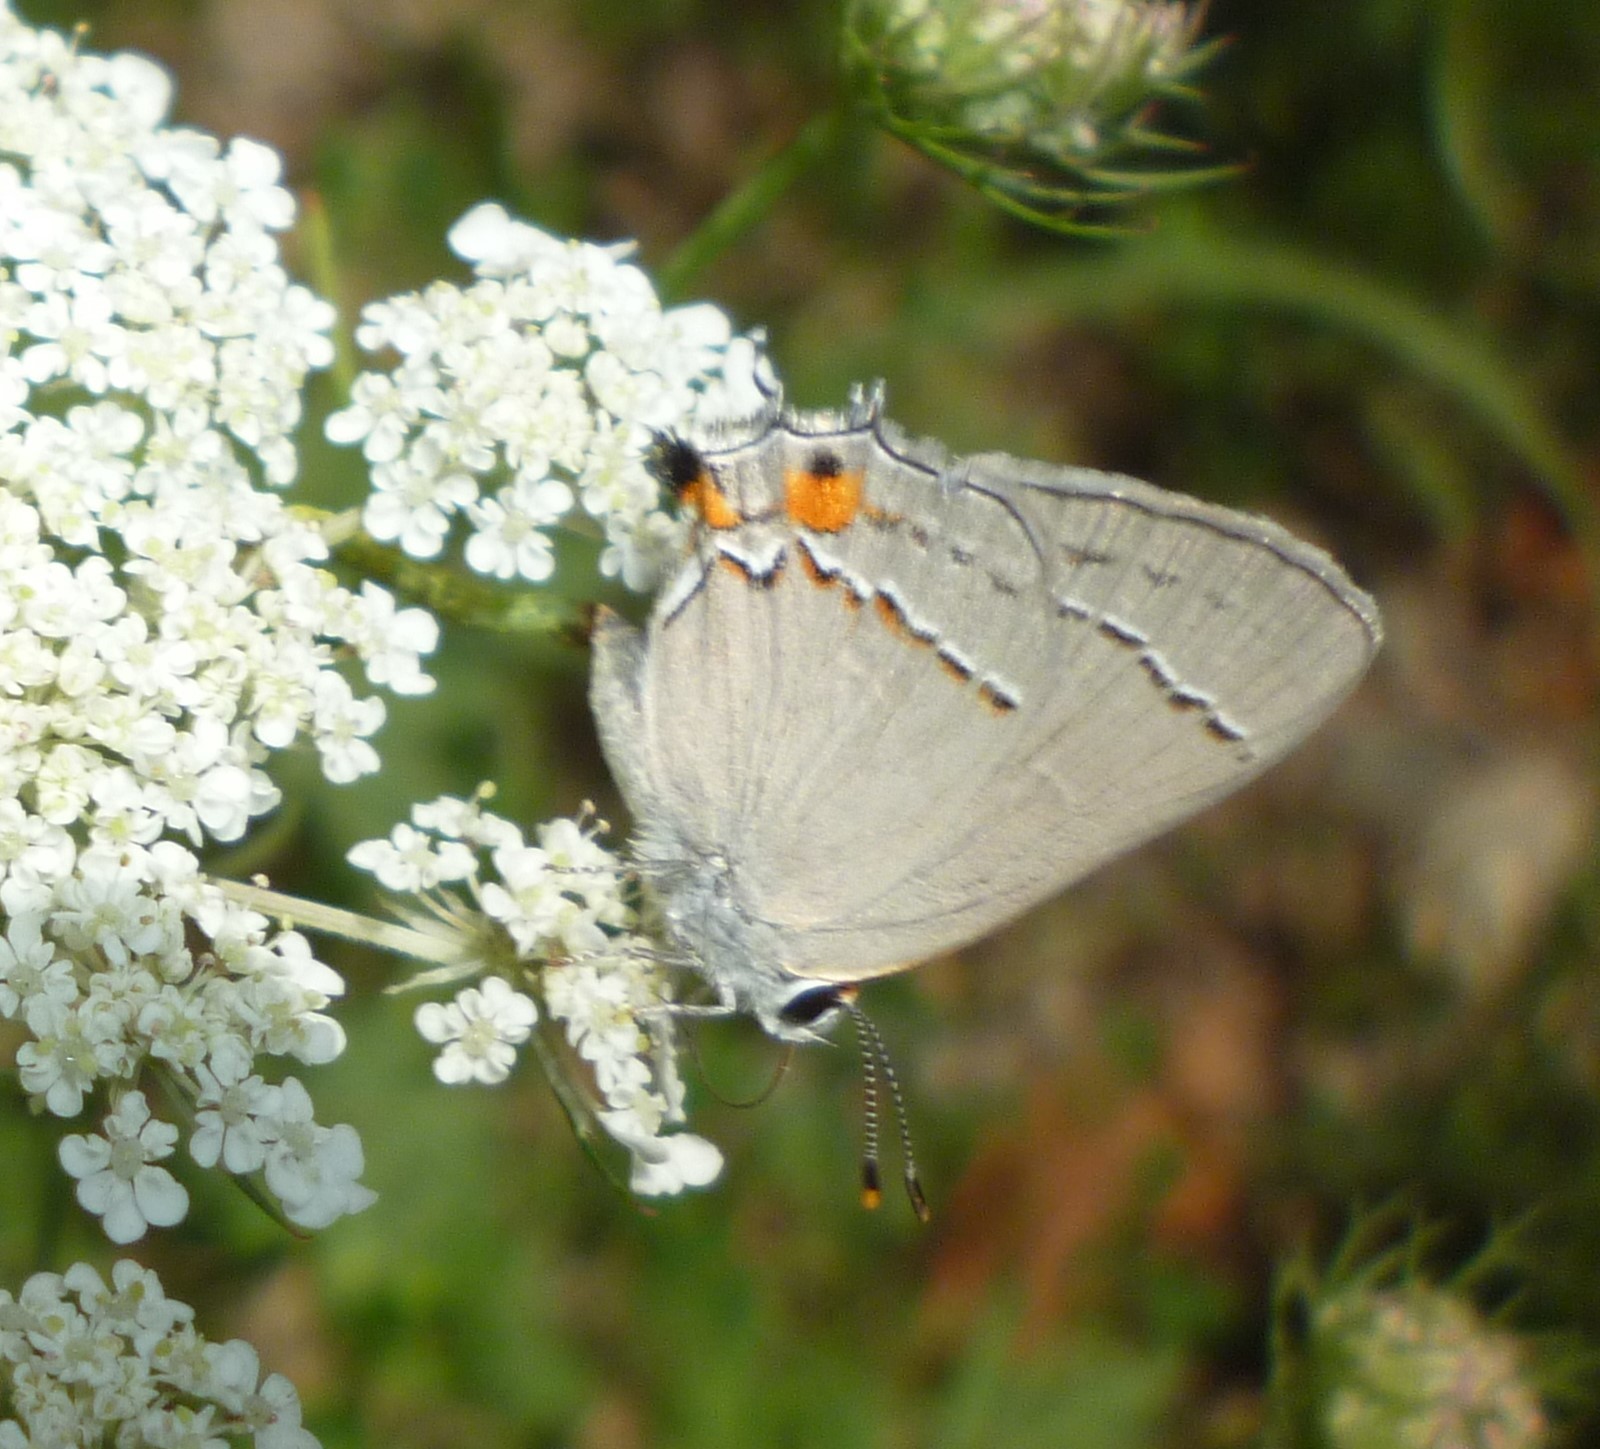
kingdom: Animalia
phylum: Arthropoda
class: Insecta
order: Lepidoptera
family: Lycaenidae
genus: Strymon
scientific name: Strymon melinus
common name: Gray hairstreak
